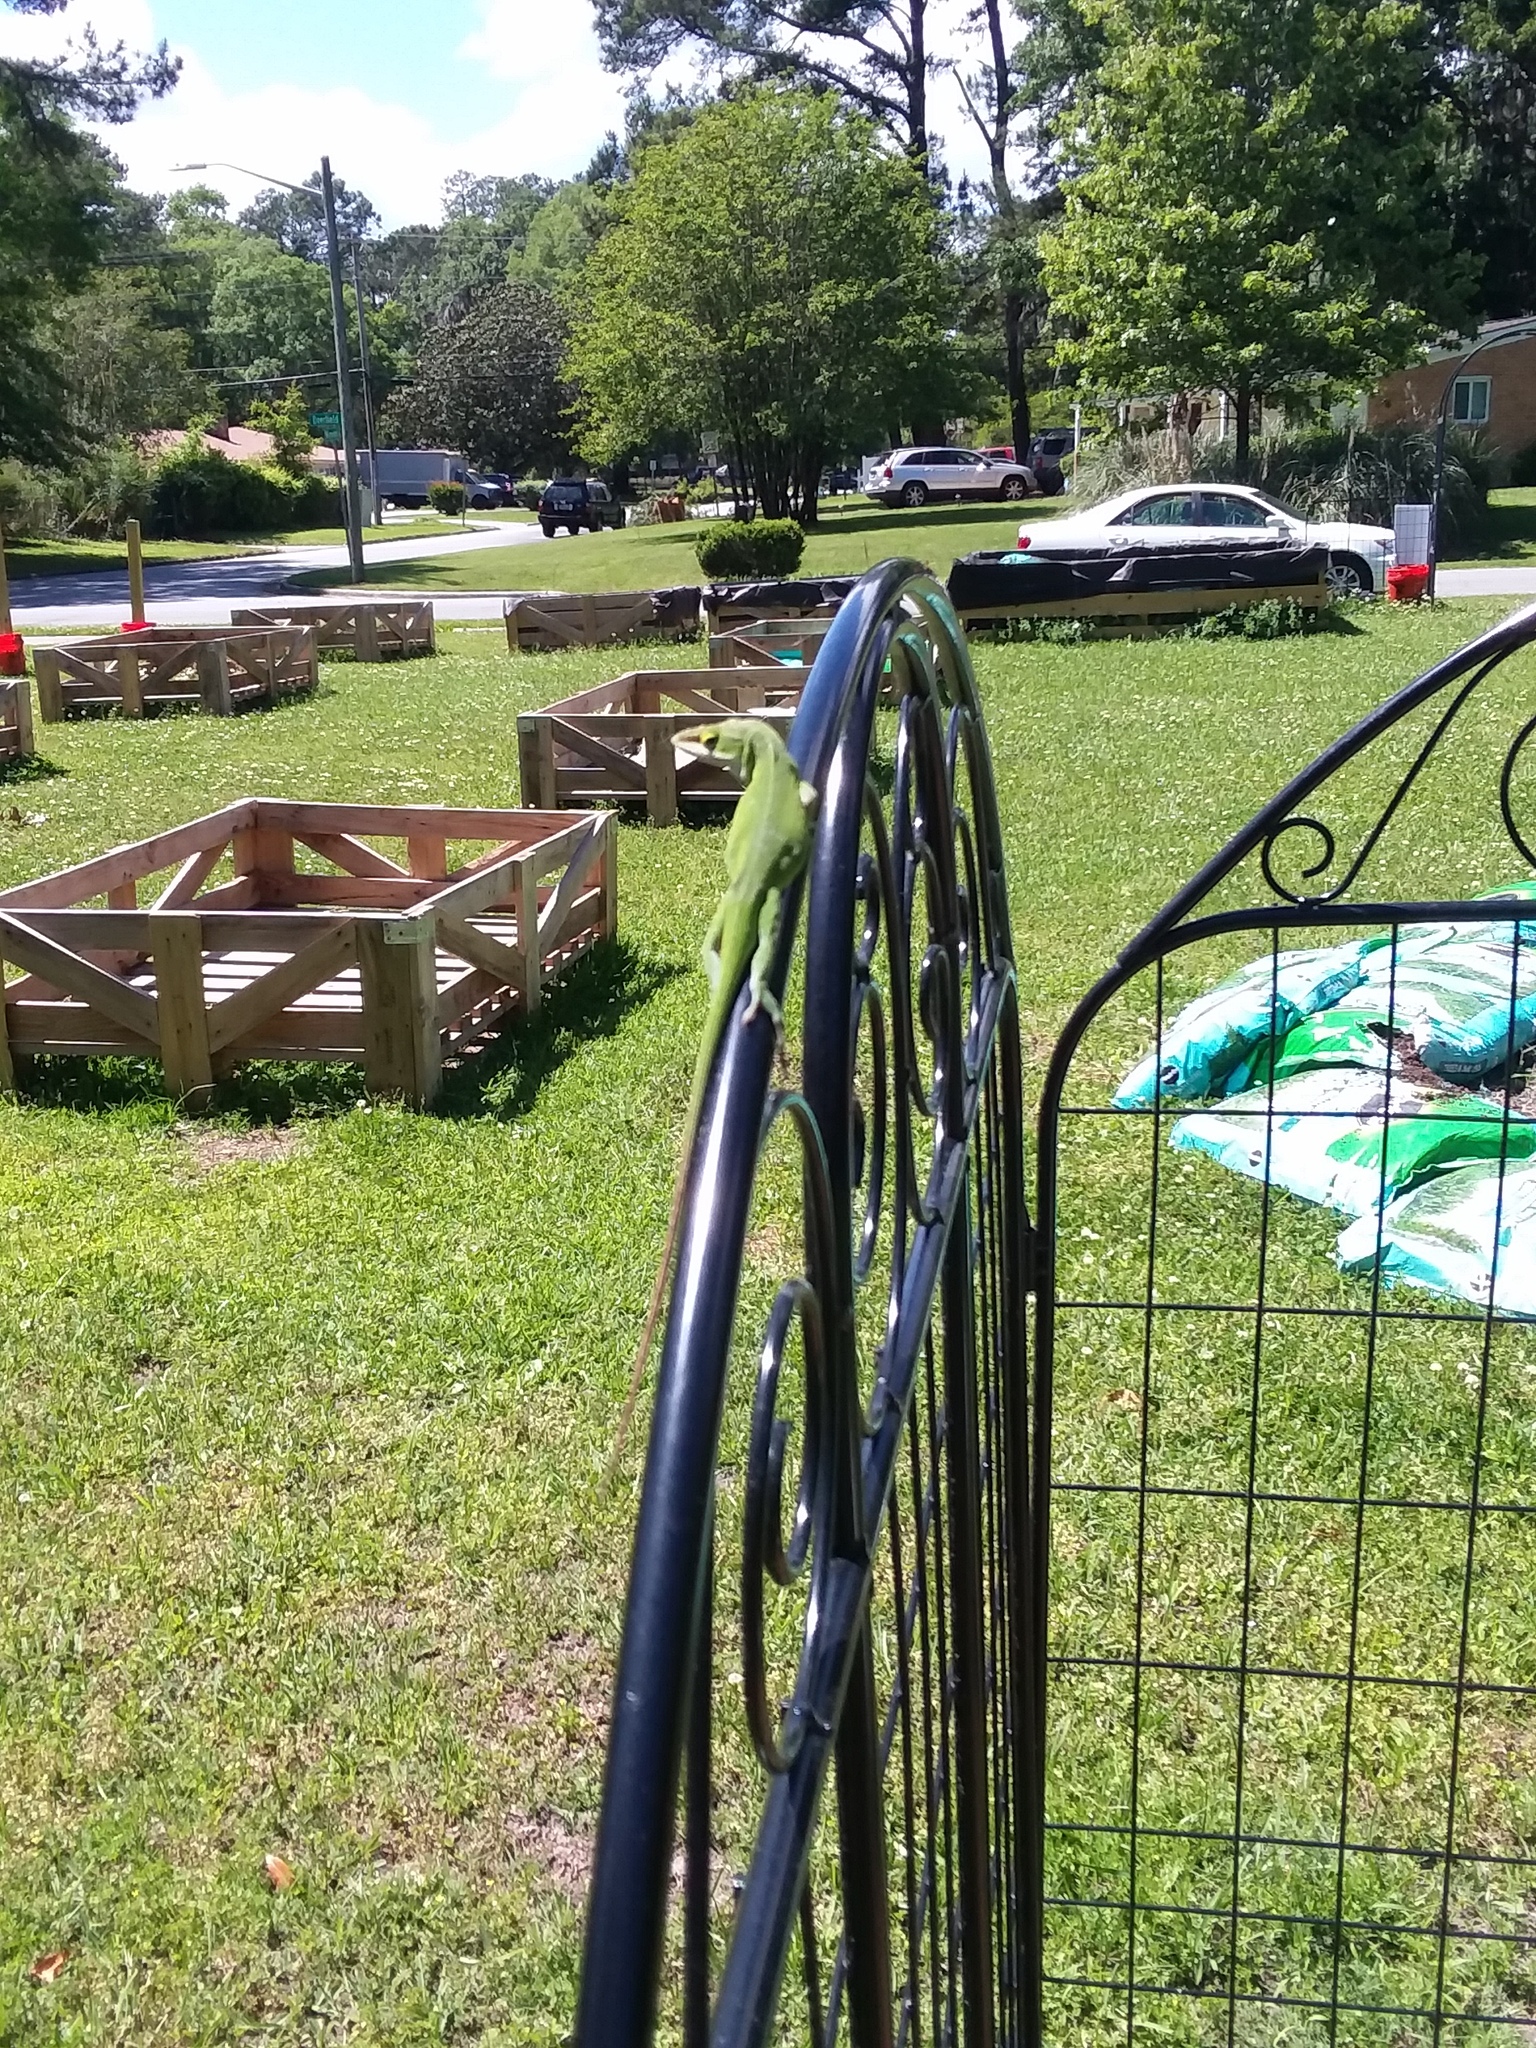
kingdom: Animalia
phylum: Chordata
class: Squamata
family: Dactyloidae
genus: Anolis
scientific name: Anolis carolinensis
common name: Green anole
